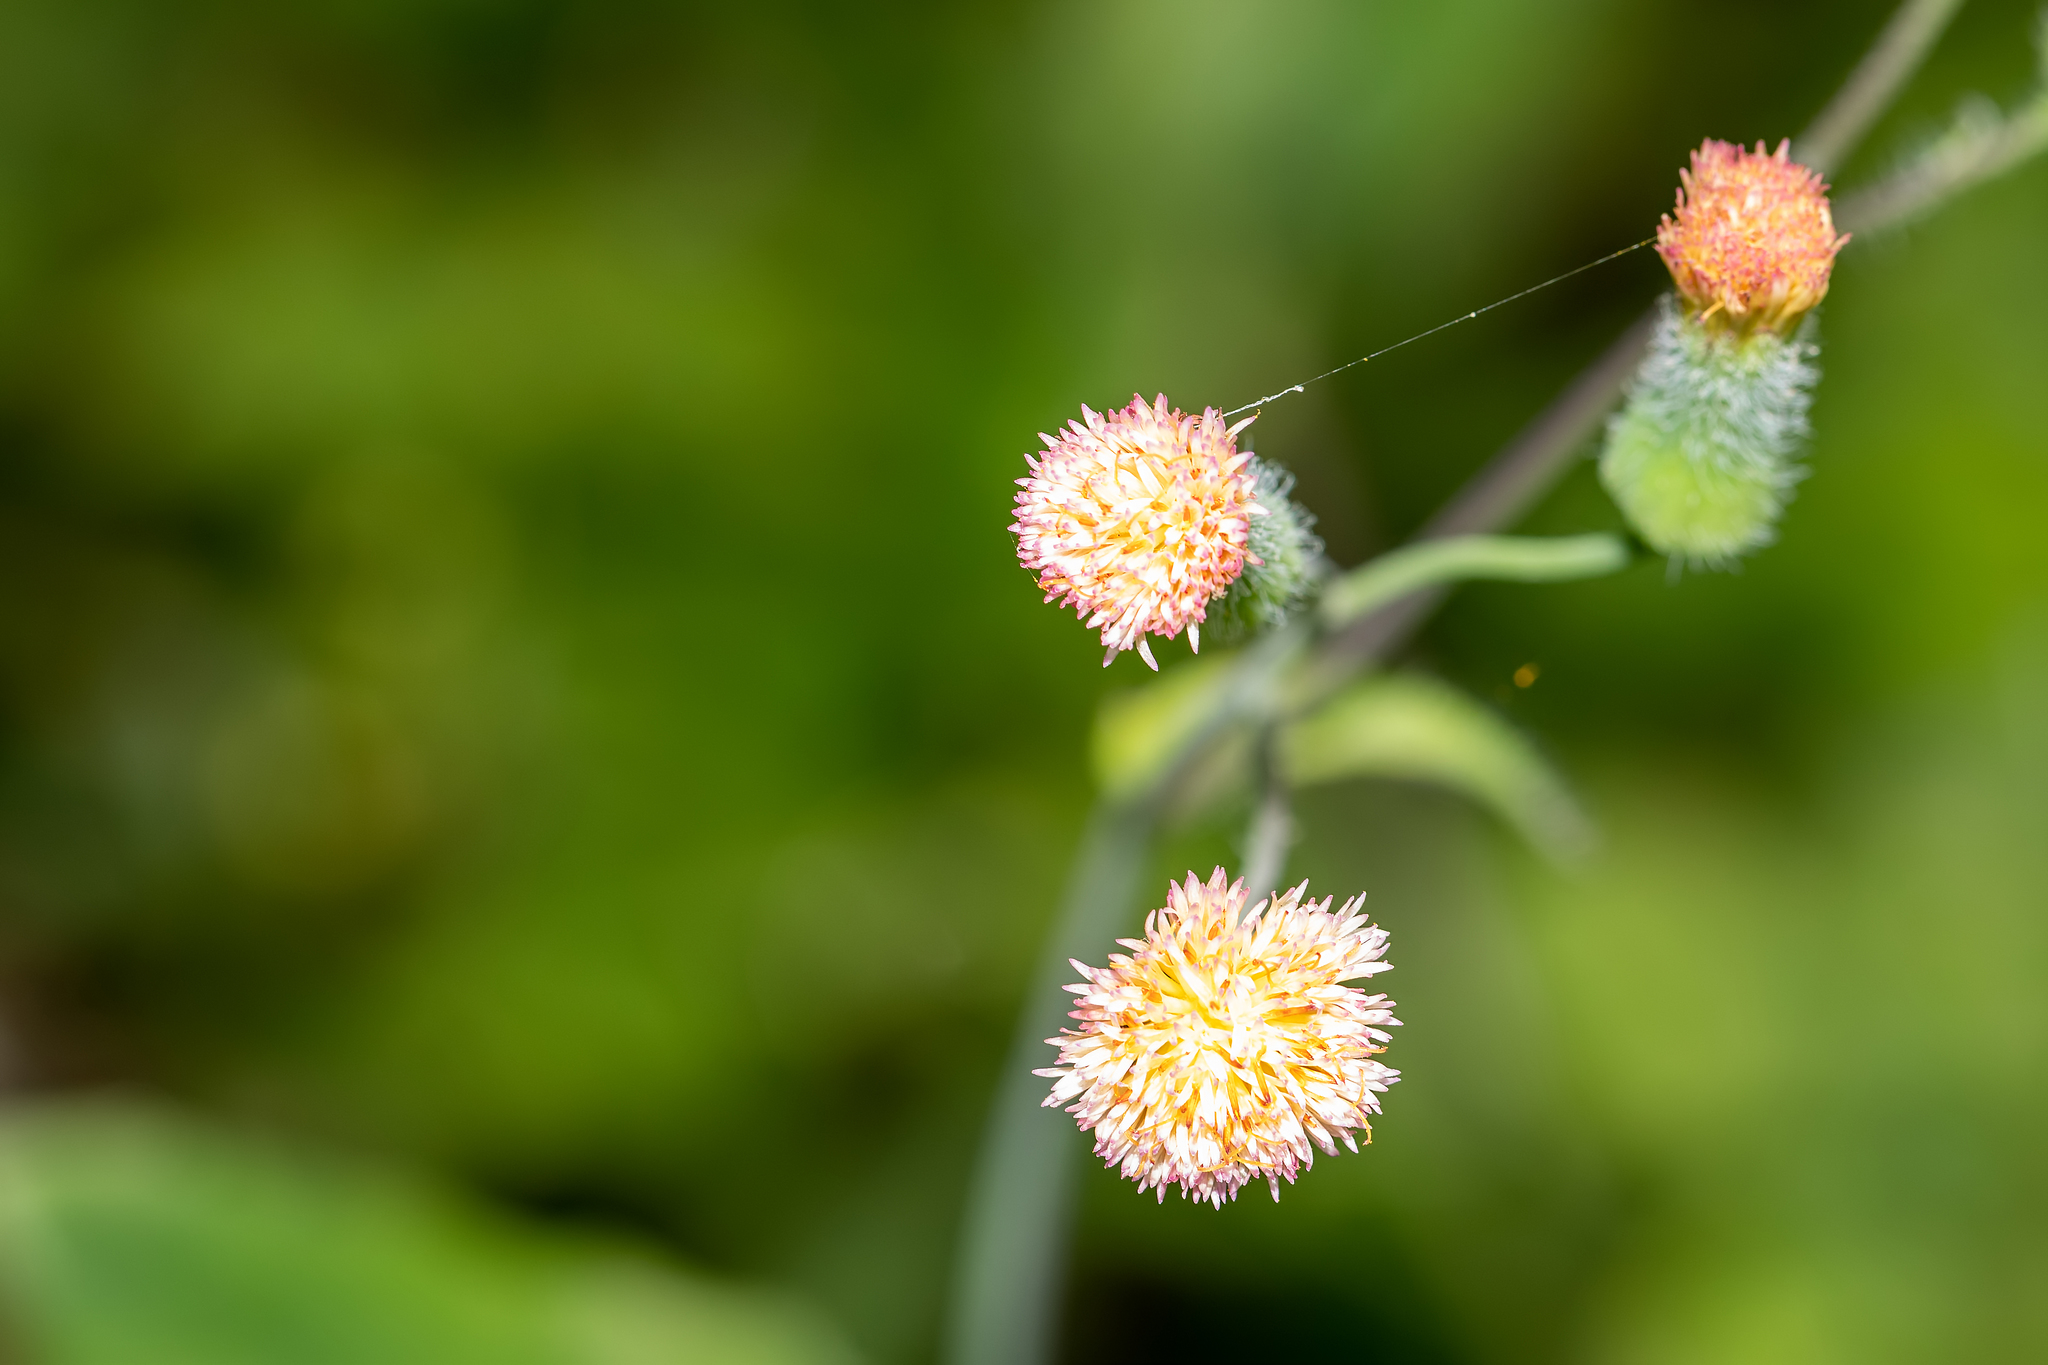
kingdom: Plantae
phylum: Tracheophyta
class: Magnoliopsida
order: Asterales
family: Asteraceae
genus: Emilia
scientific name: Emilia praetermissa
